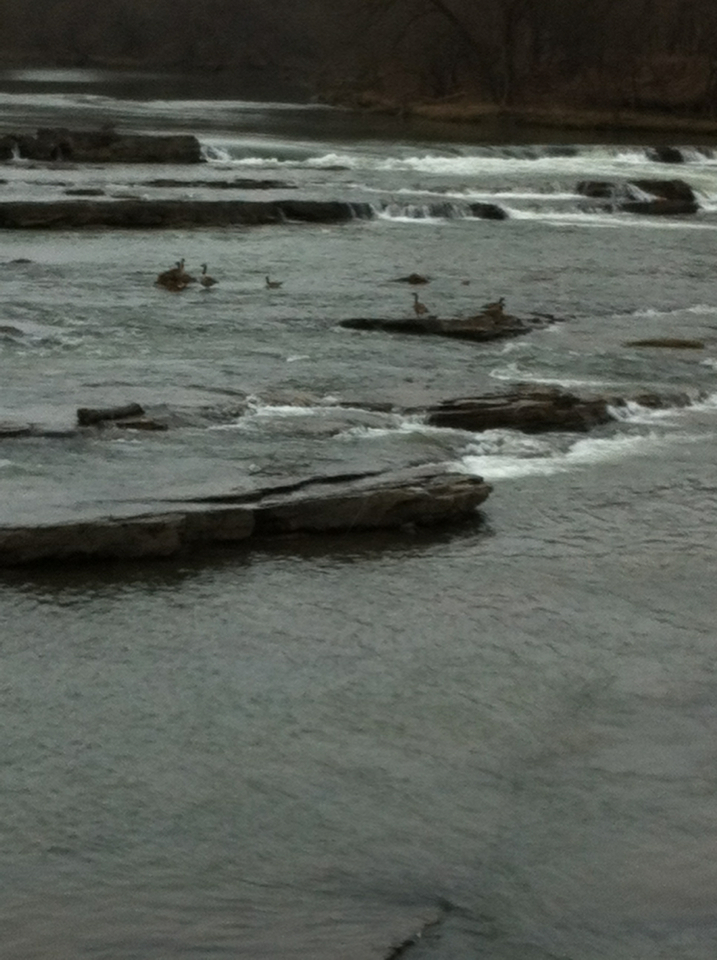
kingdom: Animalia
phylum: Chordata
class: Aves
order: Anseriformes
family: Anatidae
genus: Branta
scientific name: Branta canadensis
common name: Canada goose
